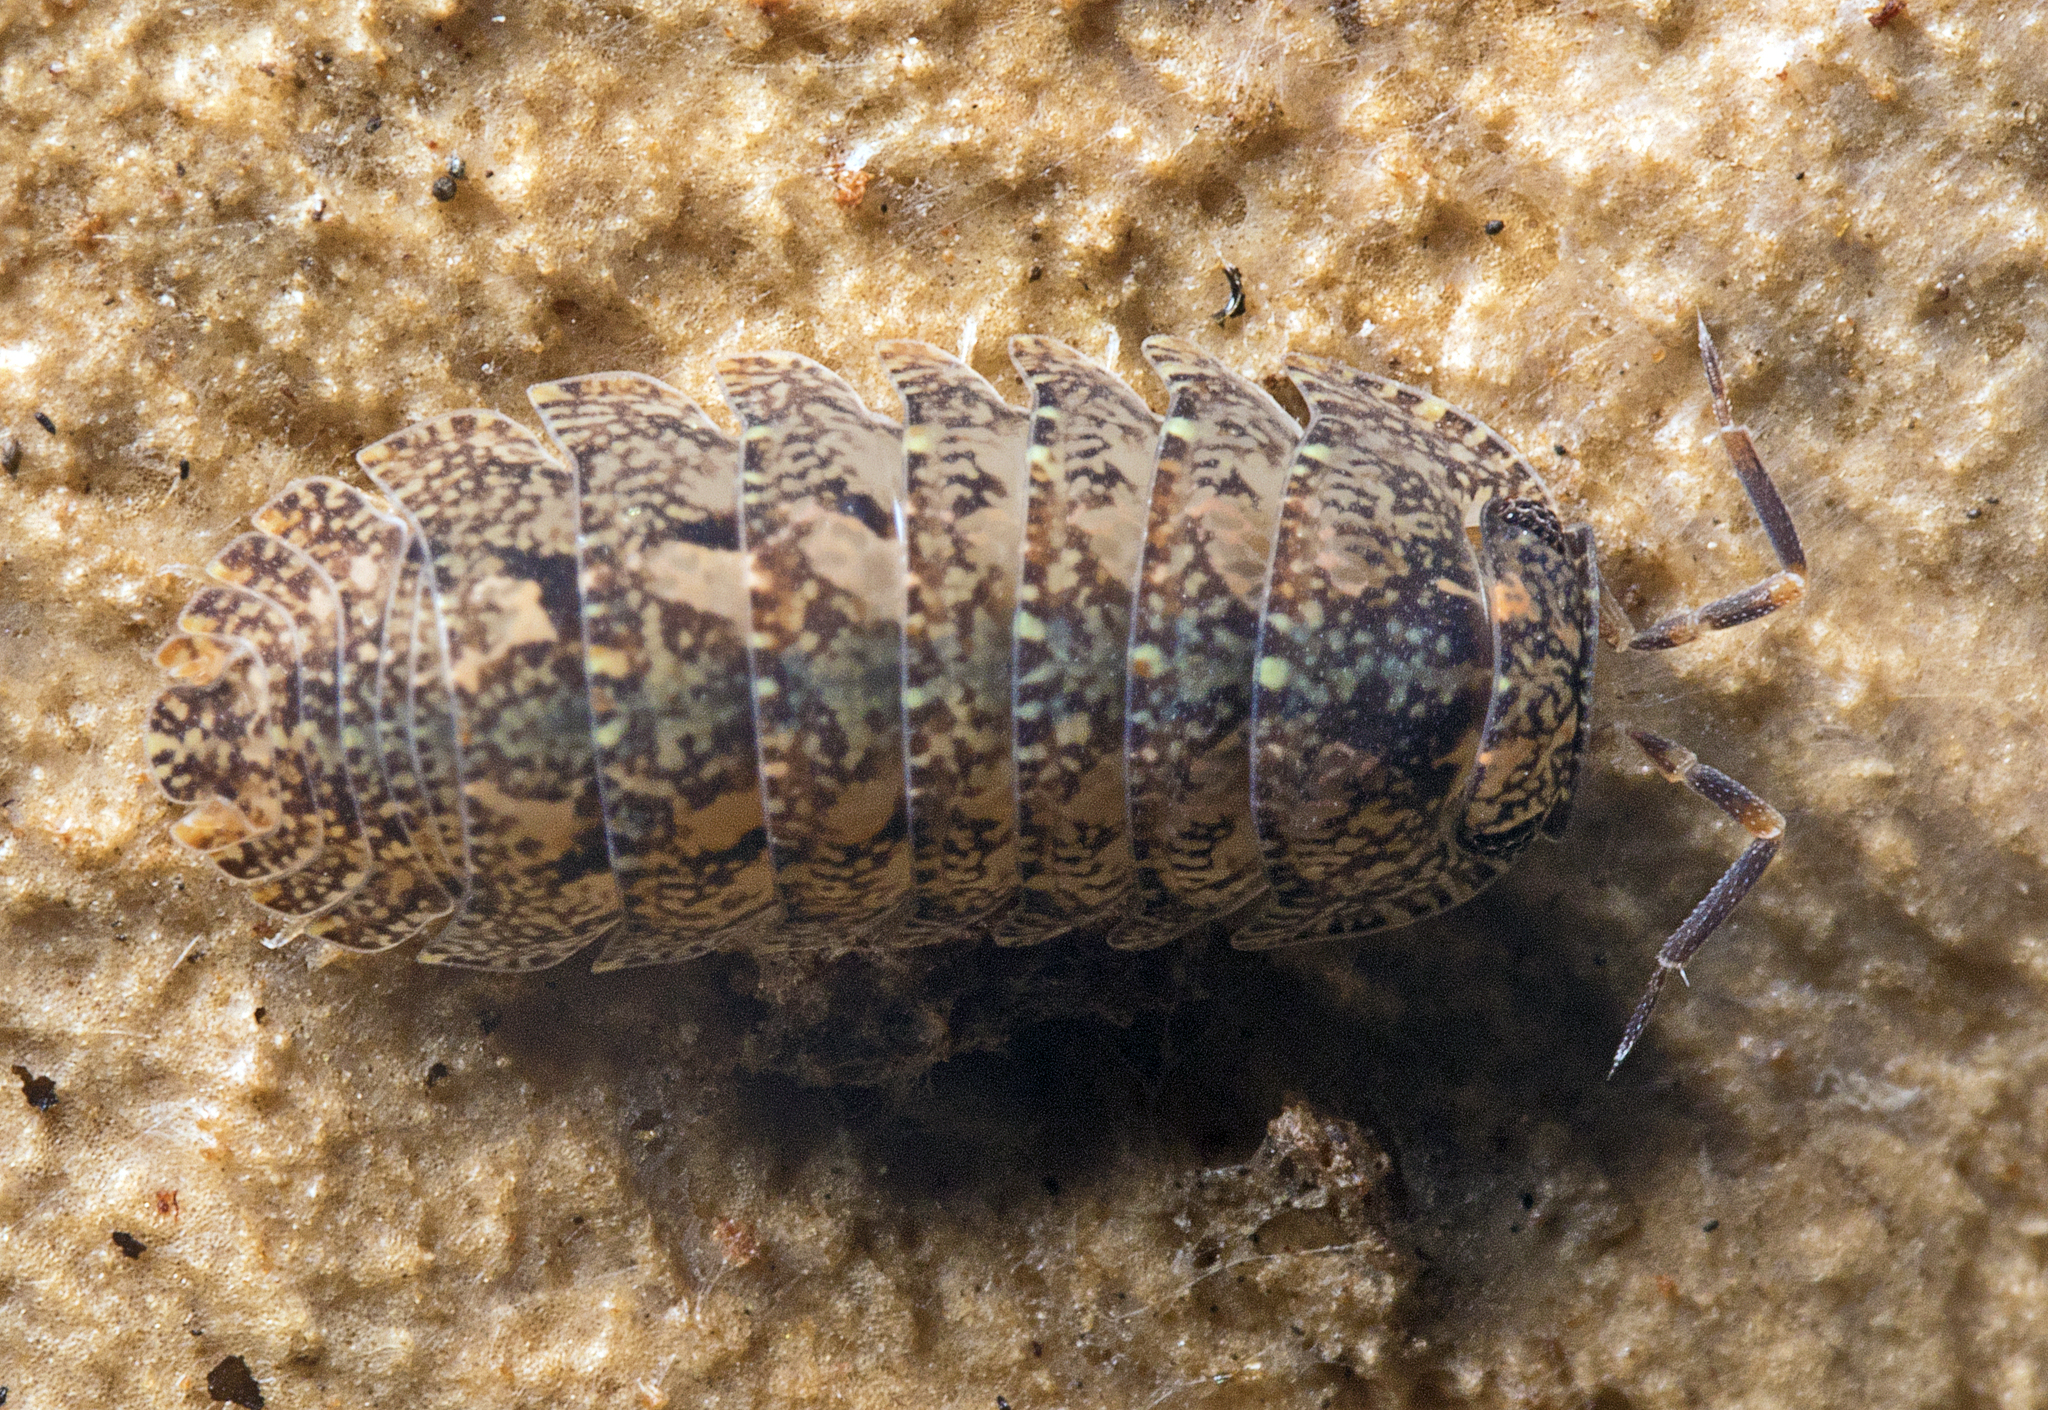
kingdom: Animalia
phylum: Arthropoda
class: Malacostraca
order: Isopoda
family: Armadillidae
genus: Cubaris
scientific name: Cubaris marmorata
